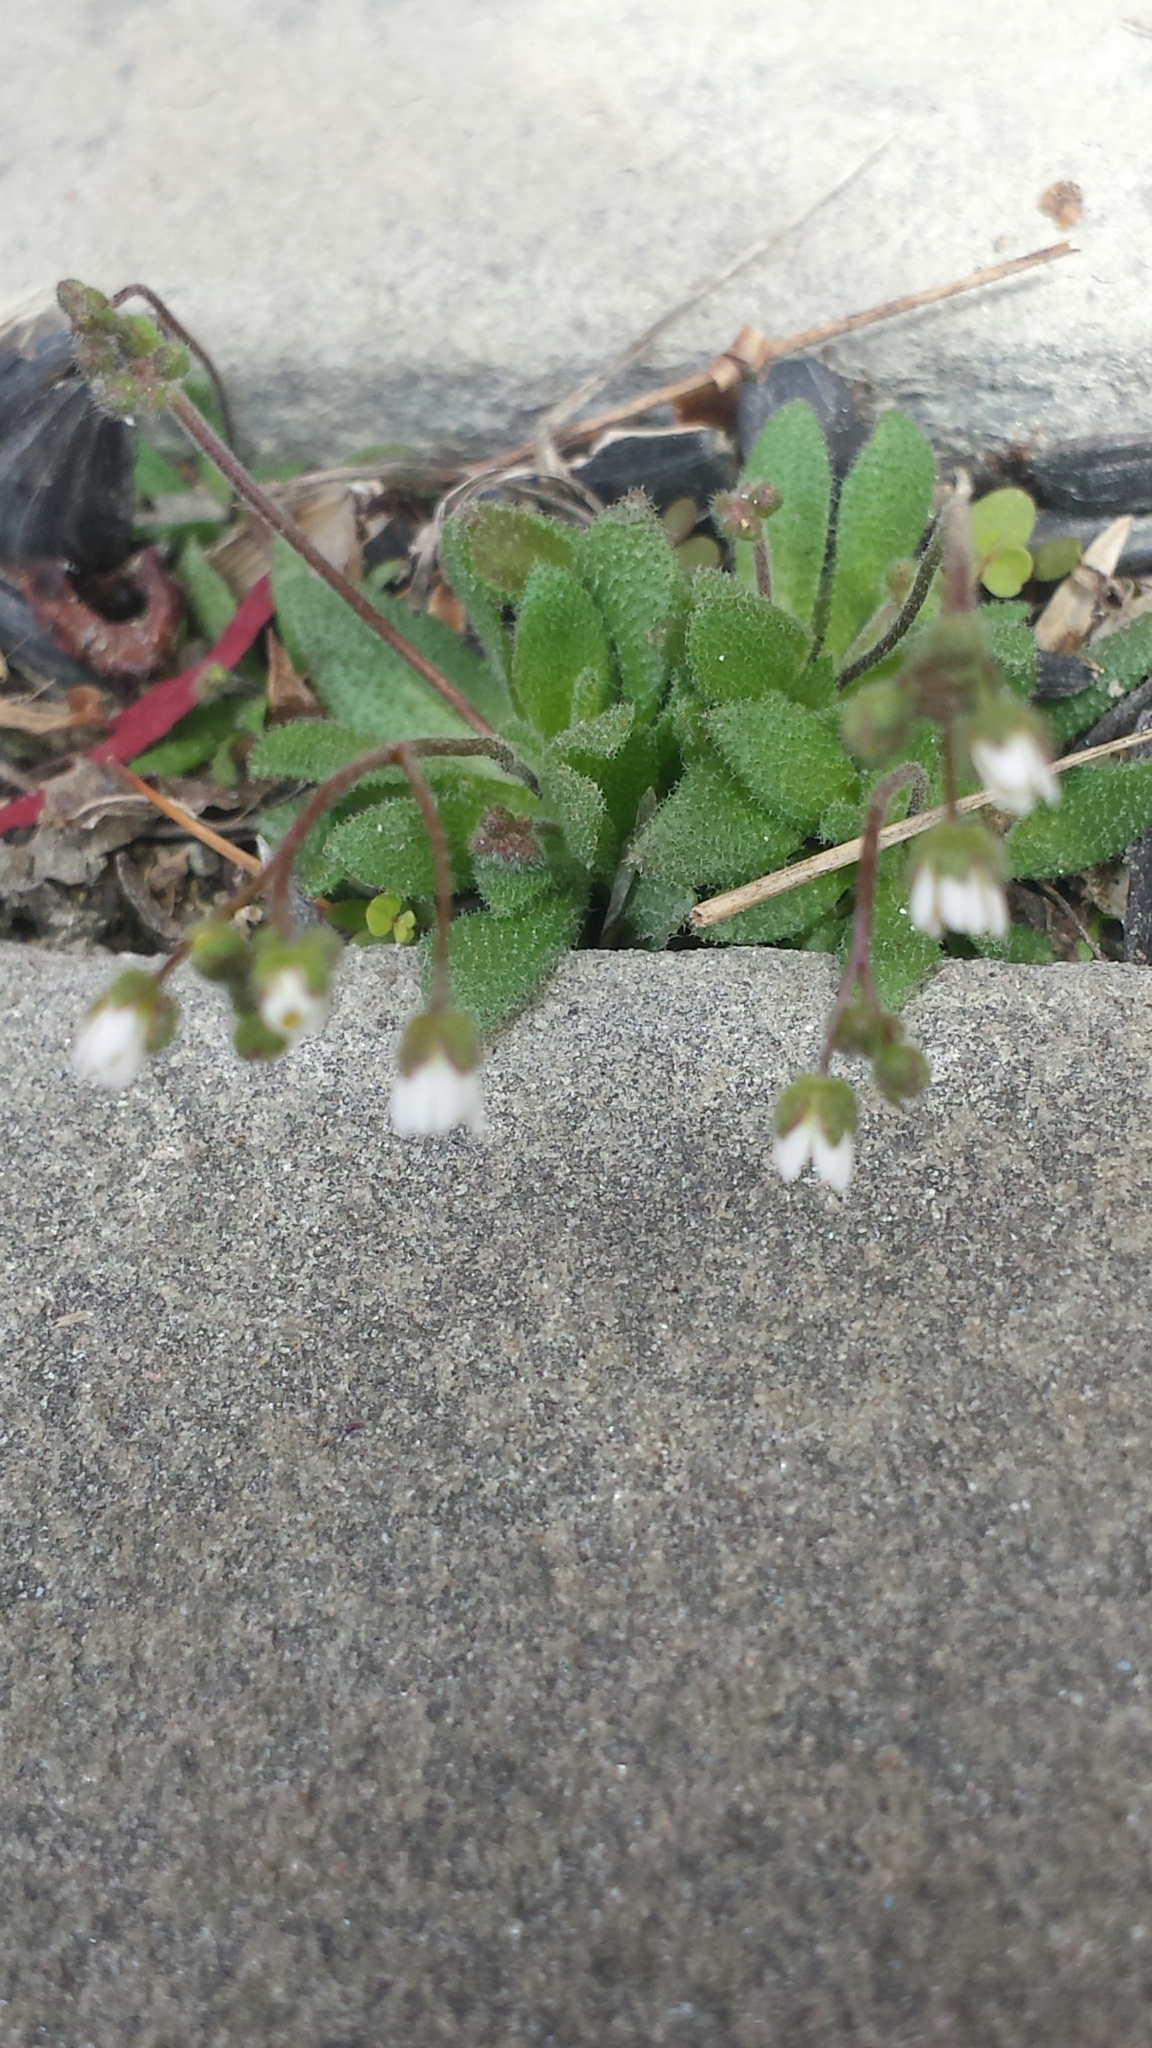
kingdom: Plantae
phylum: Tracheophyta
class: Magnoliopsida
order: Brassicales
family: Brassicaceae
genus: Draba
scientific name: Draba verna
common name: Spring draba
